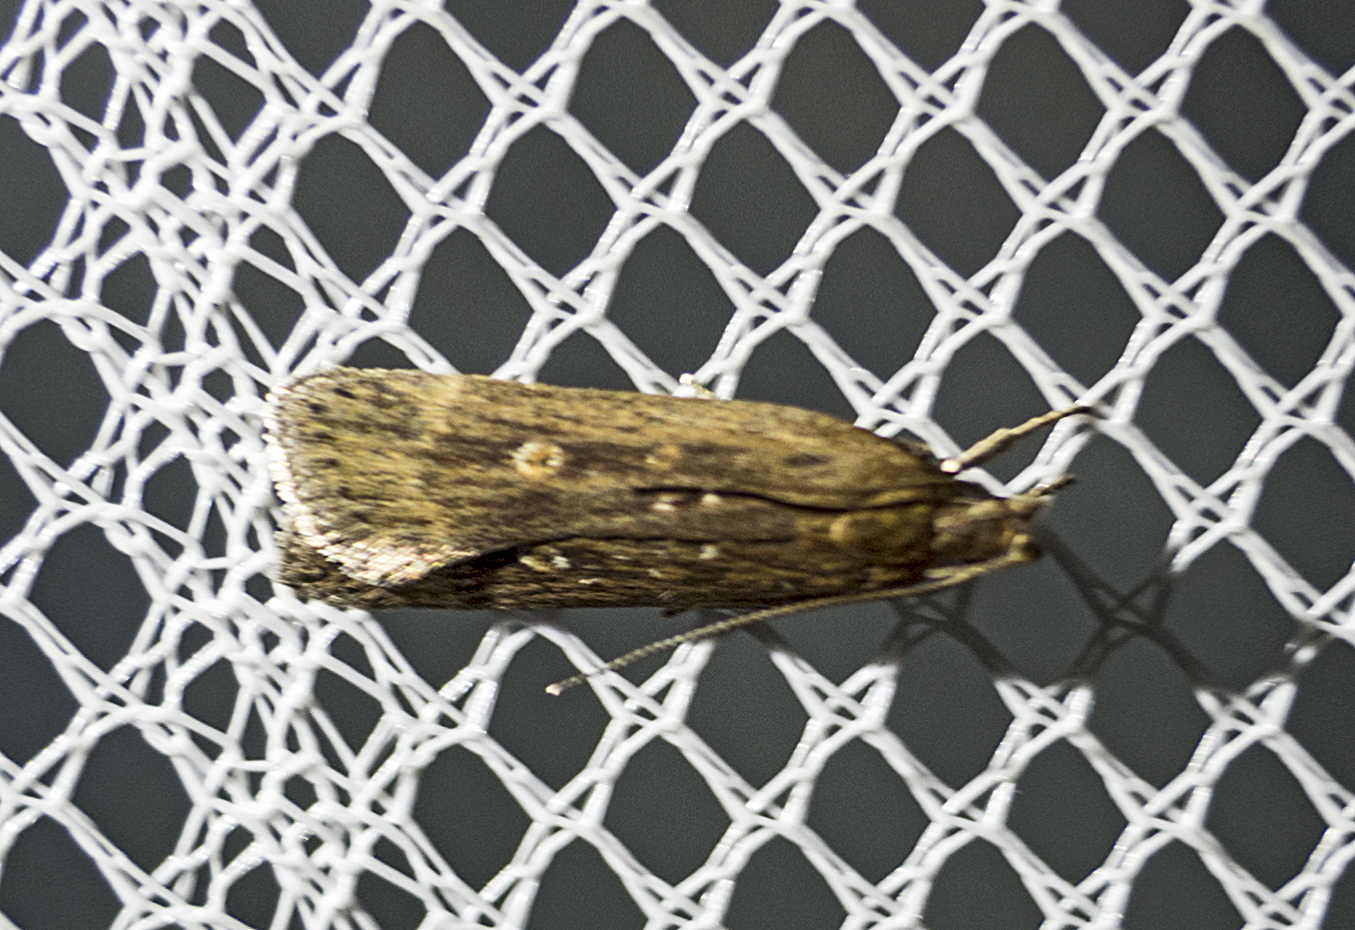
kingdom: Animalia
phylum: Arthropoda
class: Insecta
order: Lepidoptera
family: Gelechiidae
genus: Helcystogramma
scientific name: Helcystogramma triannulella
